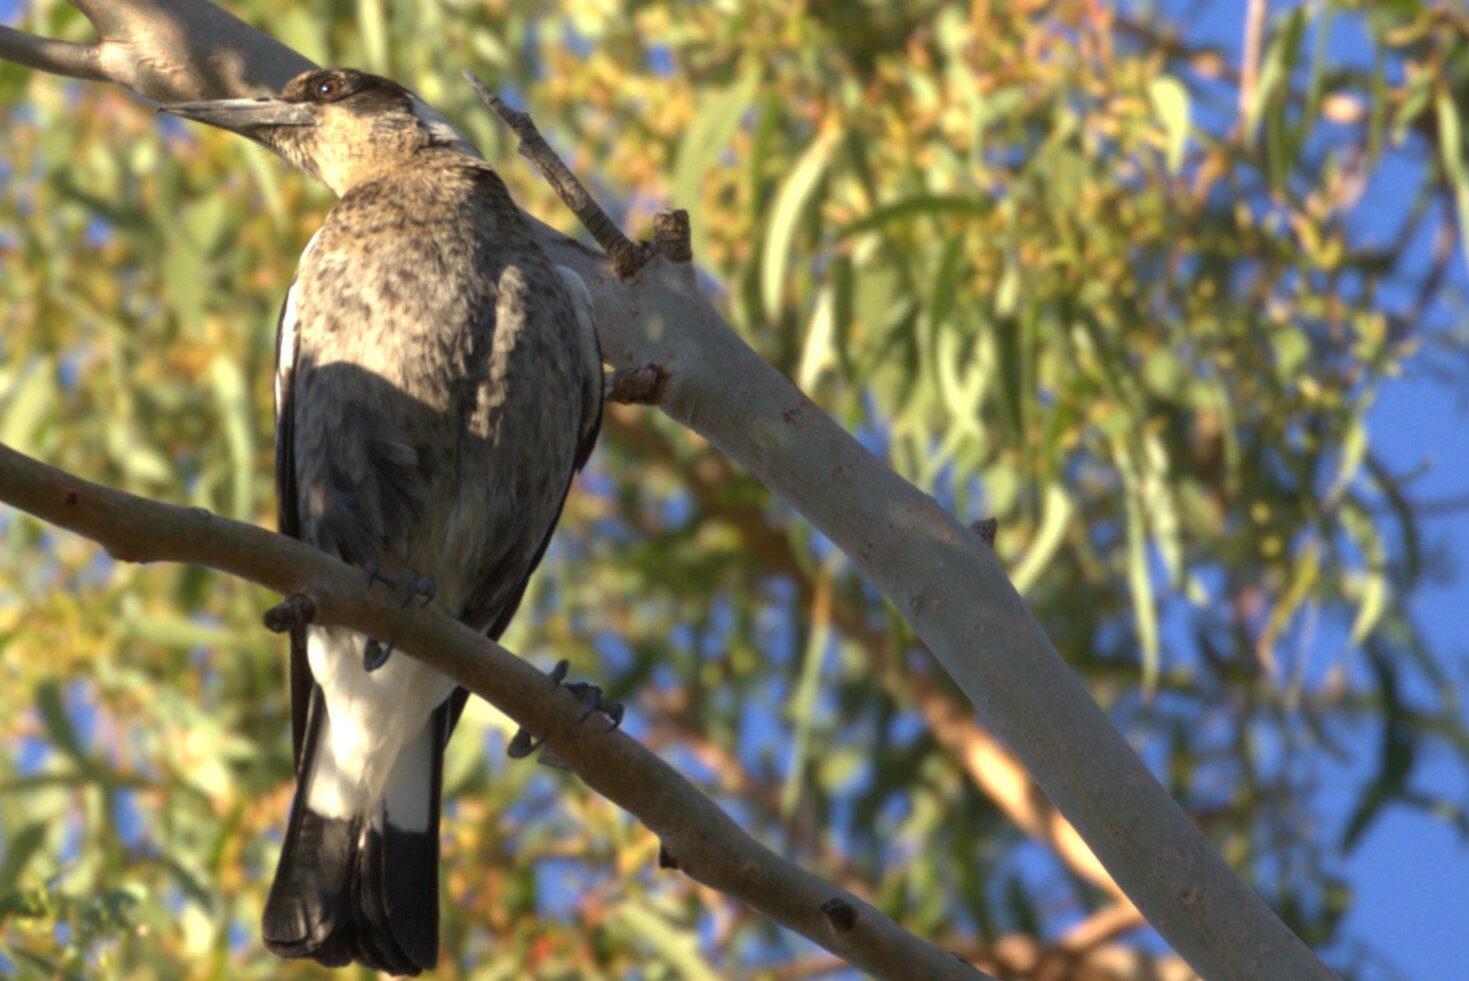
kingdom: Animalia
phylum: Chordata
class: Aves
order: Passeriformes
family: Cracticidae
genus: Gymnorhina
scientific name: Gymnorhina tibicen
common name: Australian magpie
